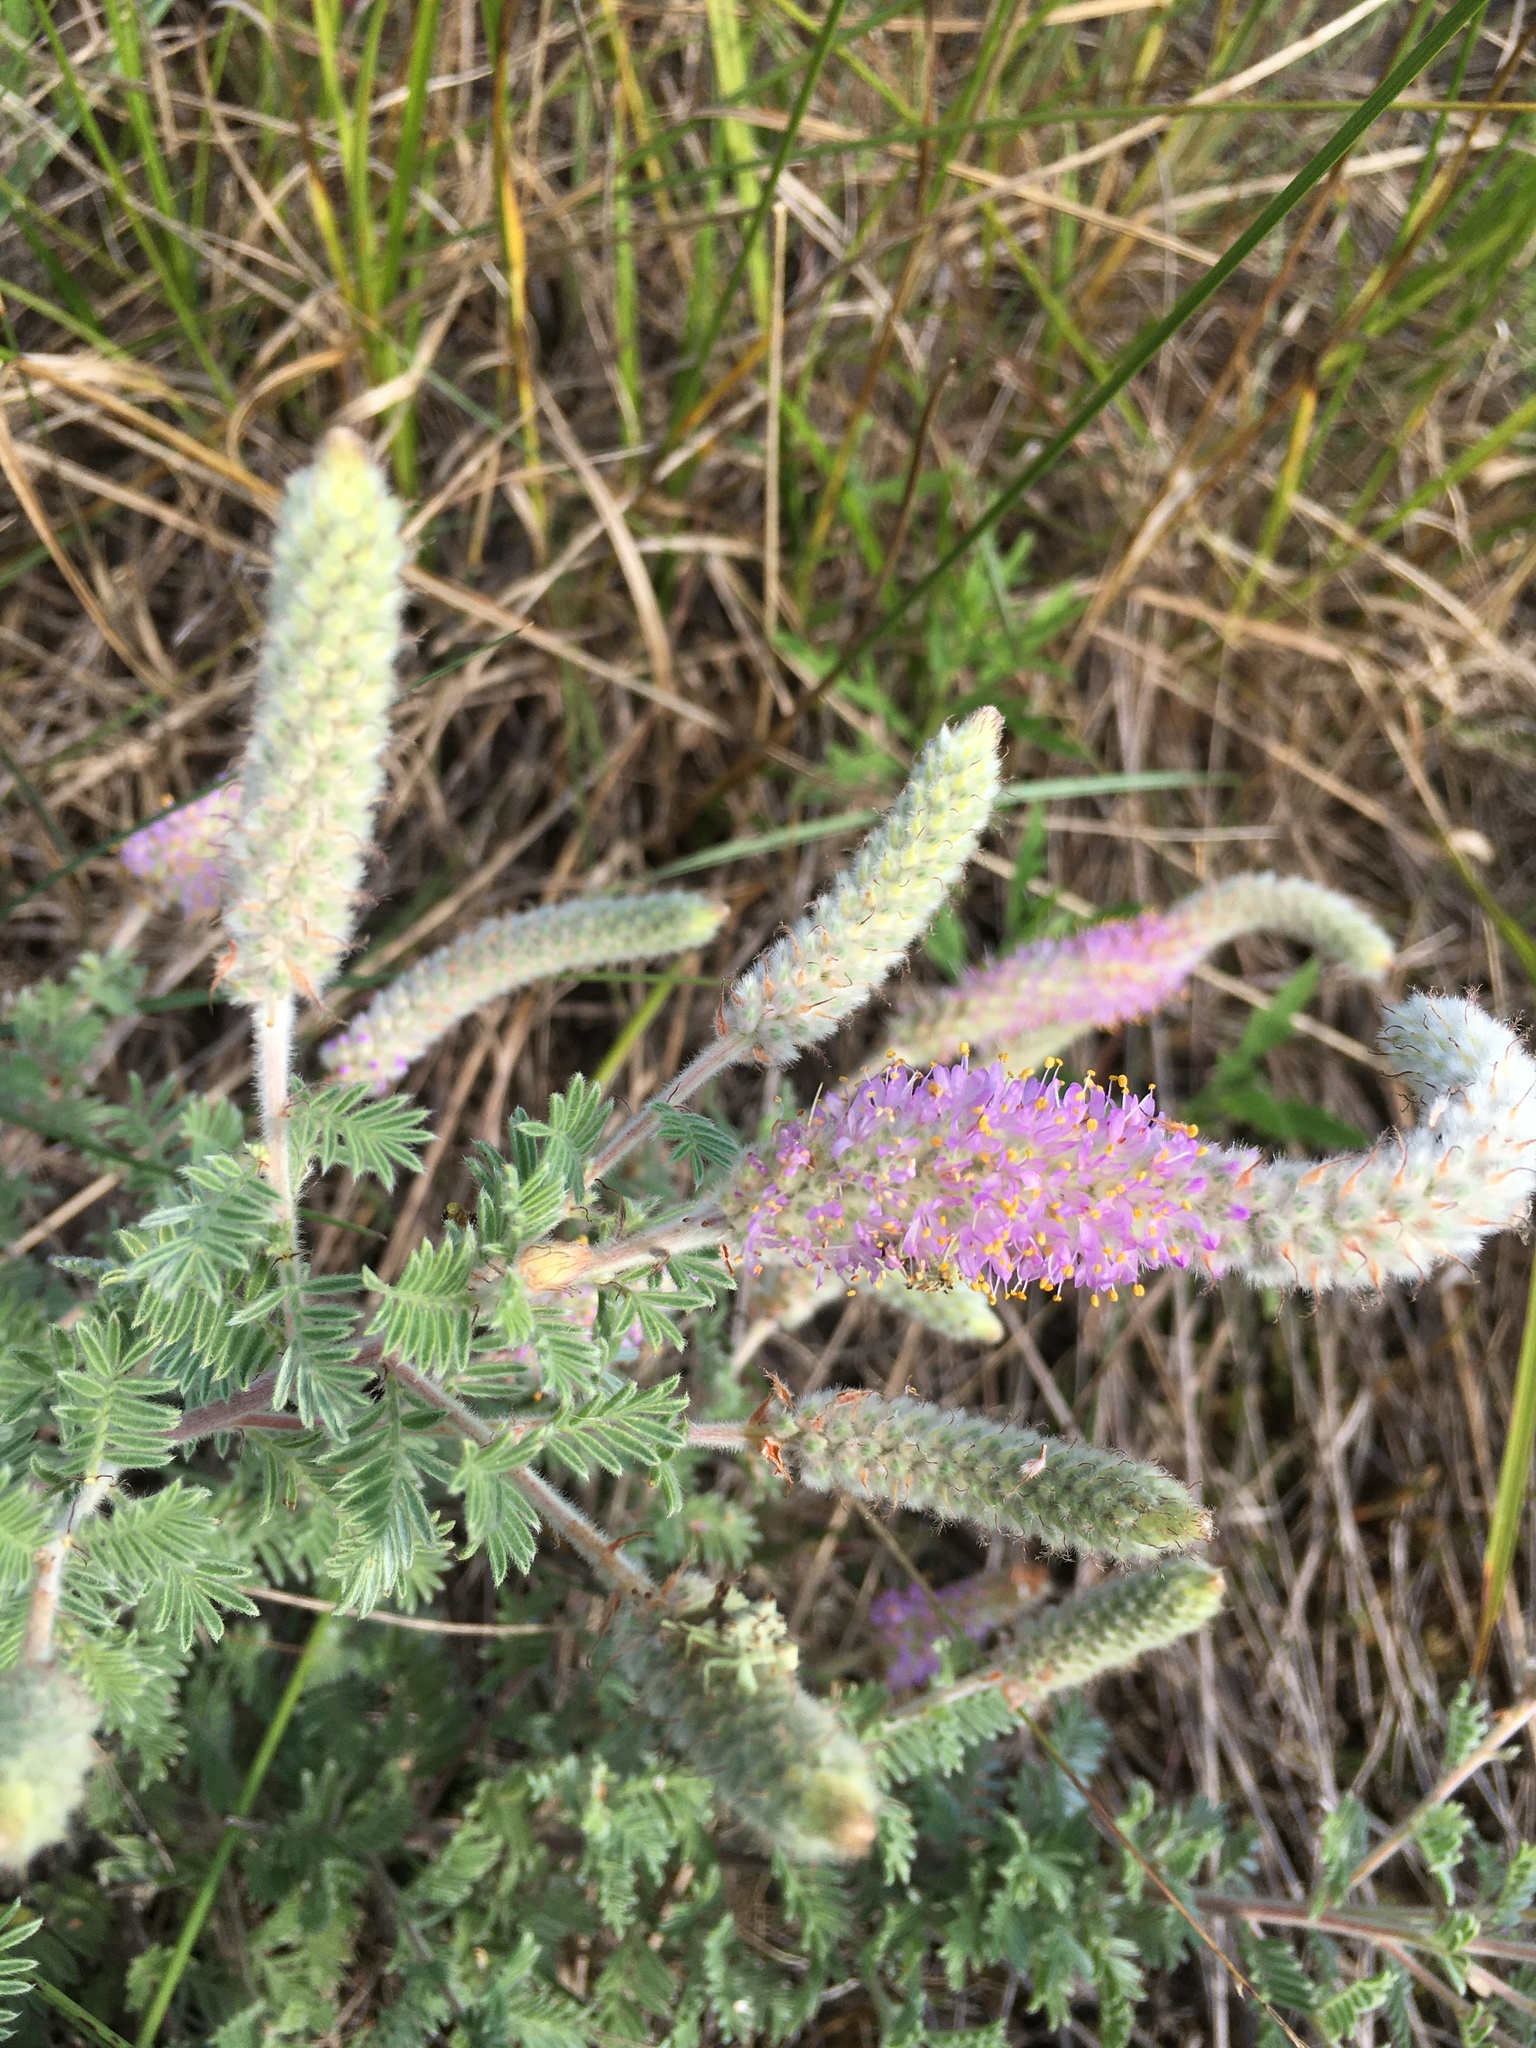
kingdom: Plantae
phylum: Tracheophyta
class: Magnoliopsida
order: Fabales
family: Fabaceae
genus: Dalea
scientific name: Dalea villosa
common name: Silky prairie-clover
